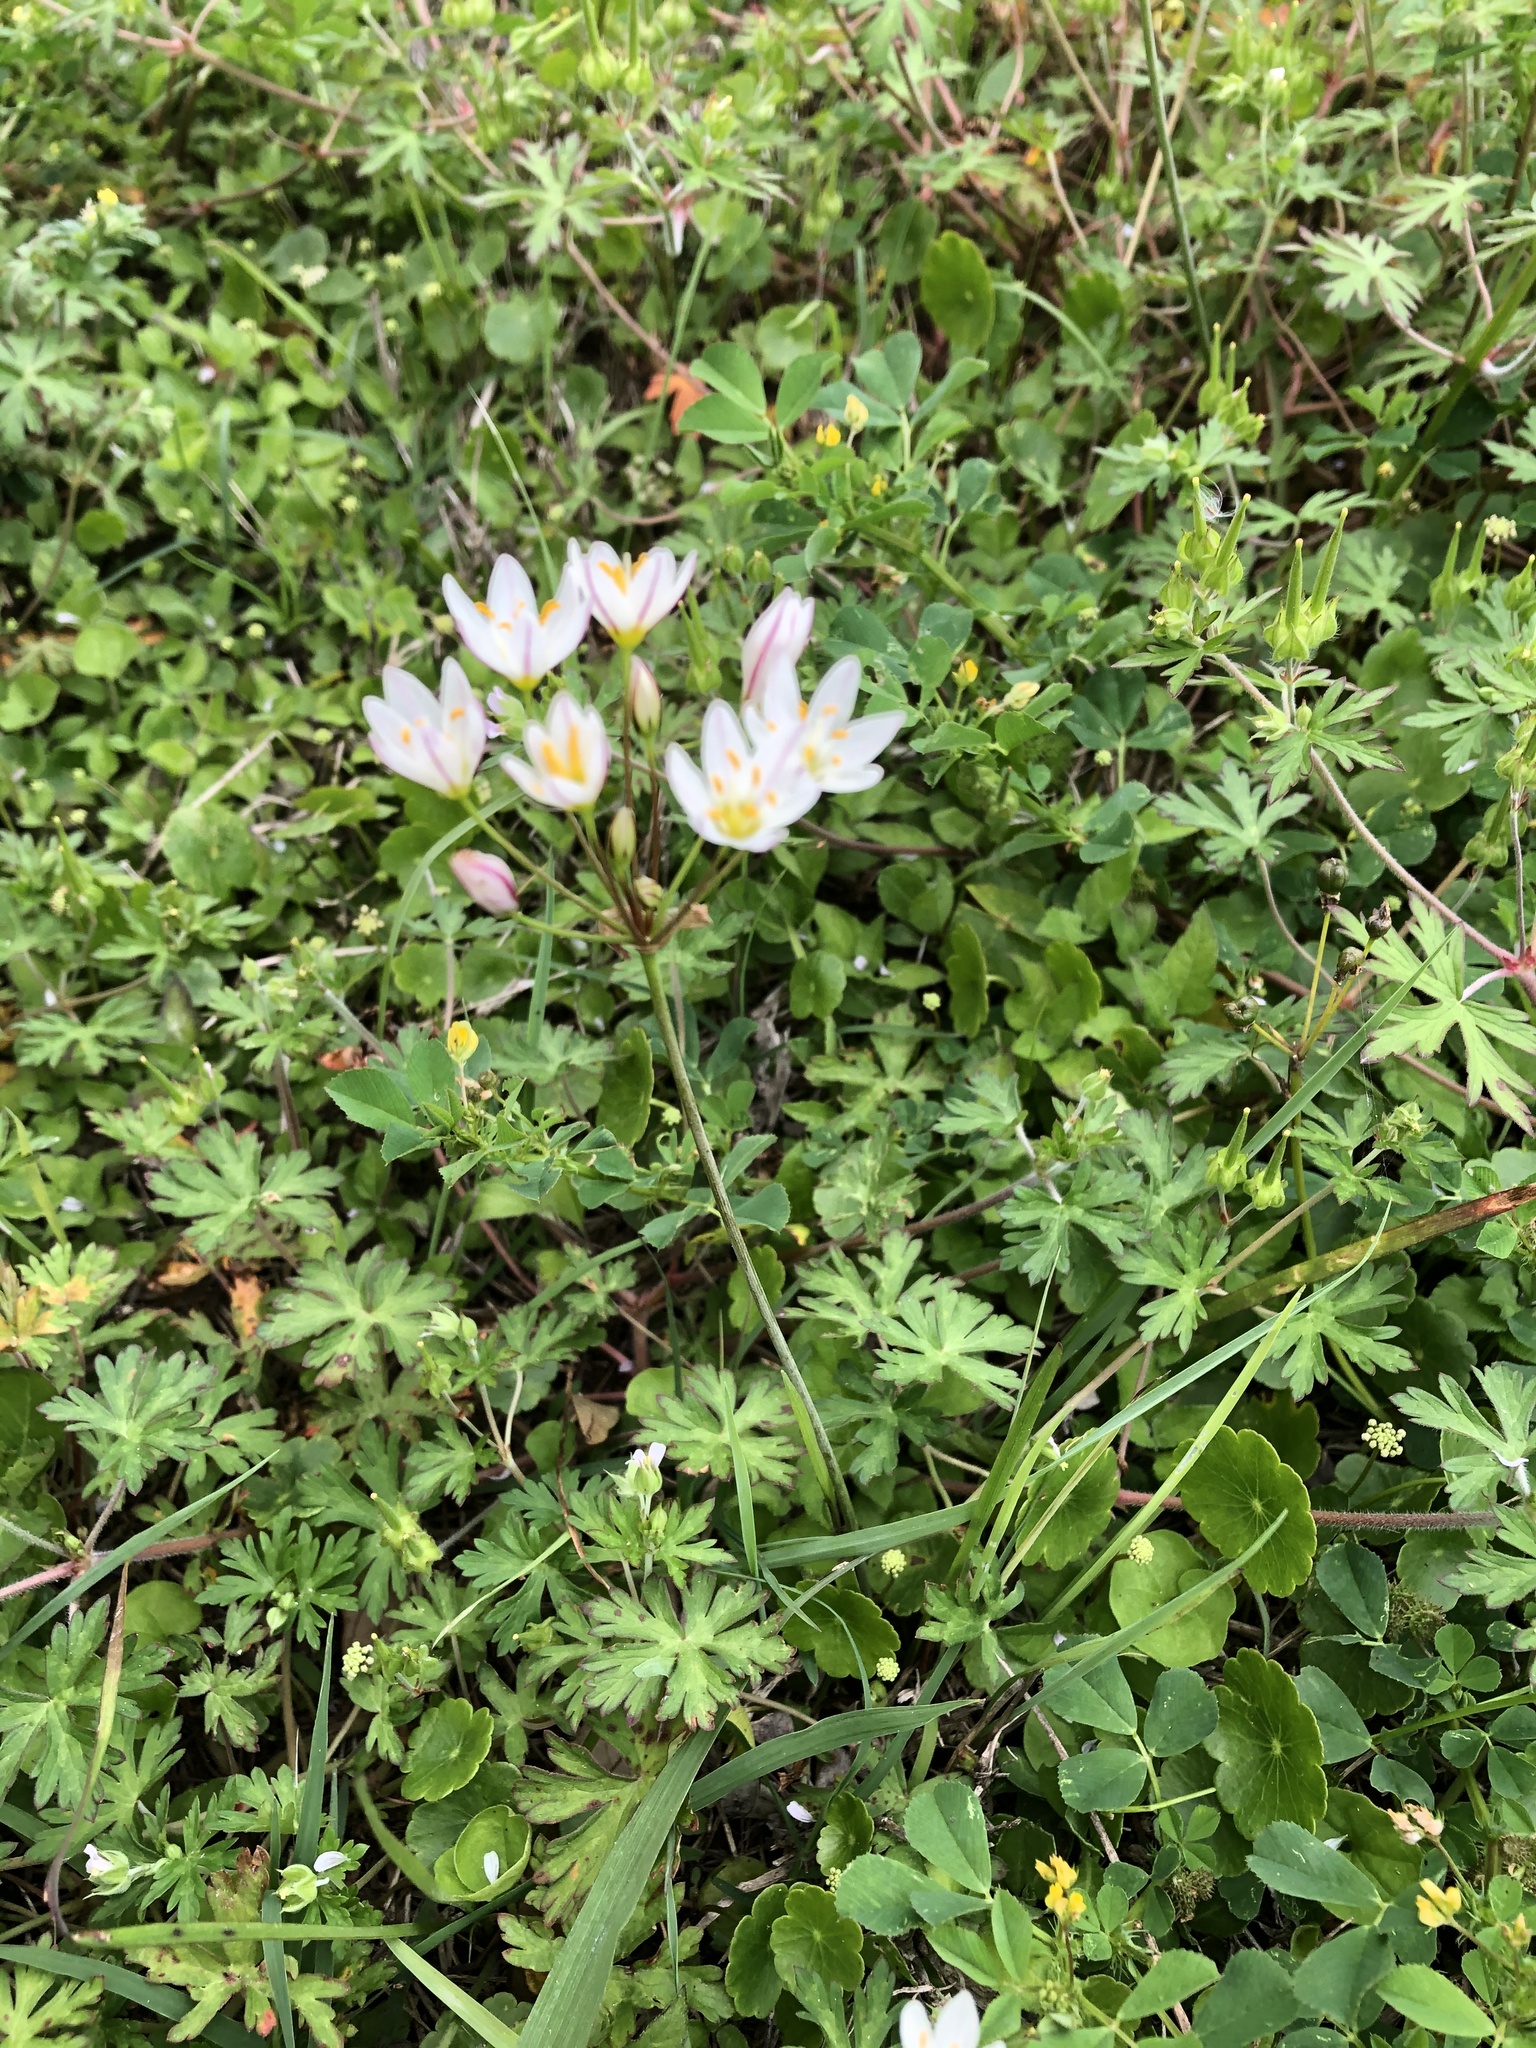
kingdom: Plantae
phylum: Tracheophyta
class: Liliopsida
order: Asparagales
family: Amaryllidaceae
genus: Nothoscordum
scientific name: Nothoscordum bivalve
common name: Crow-poison
